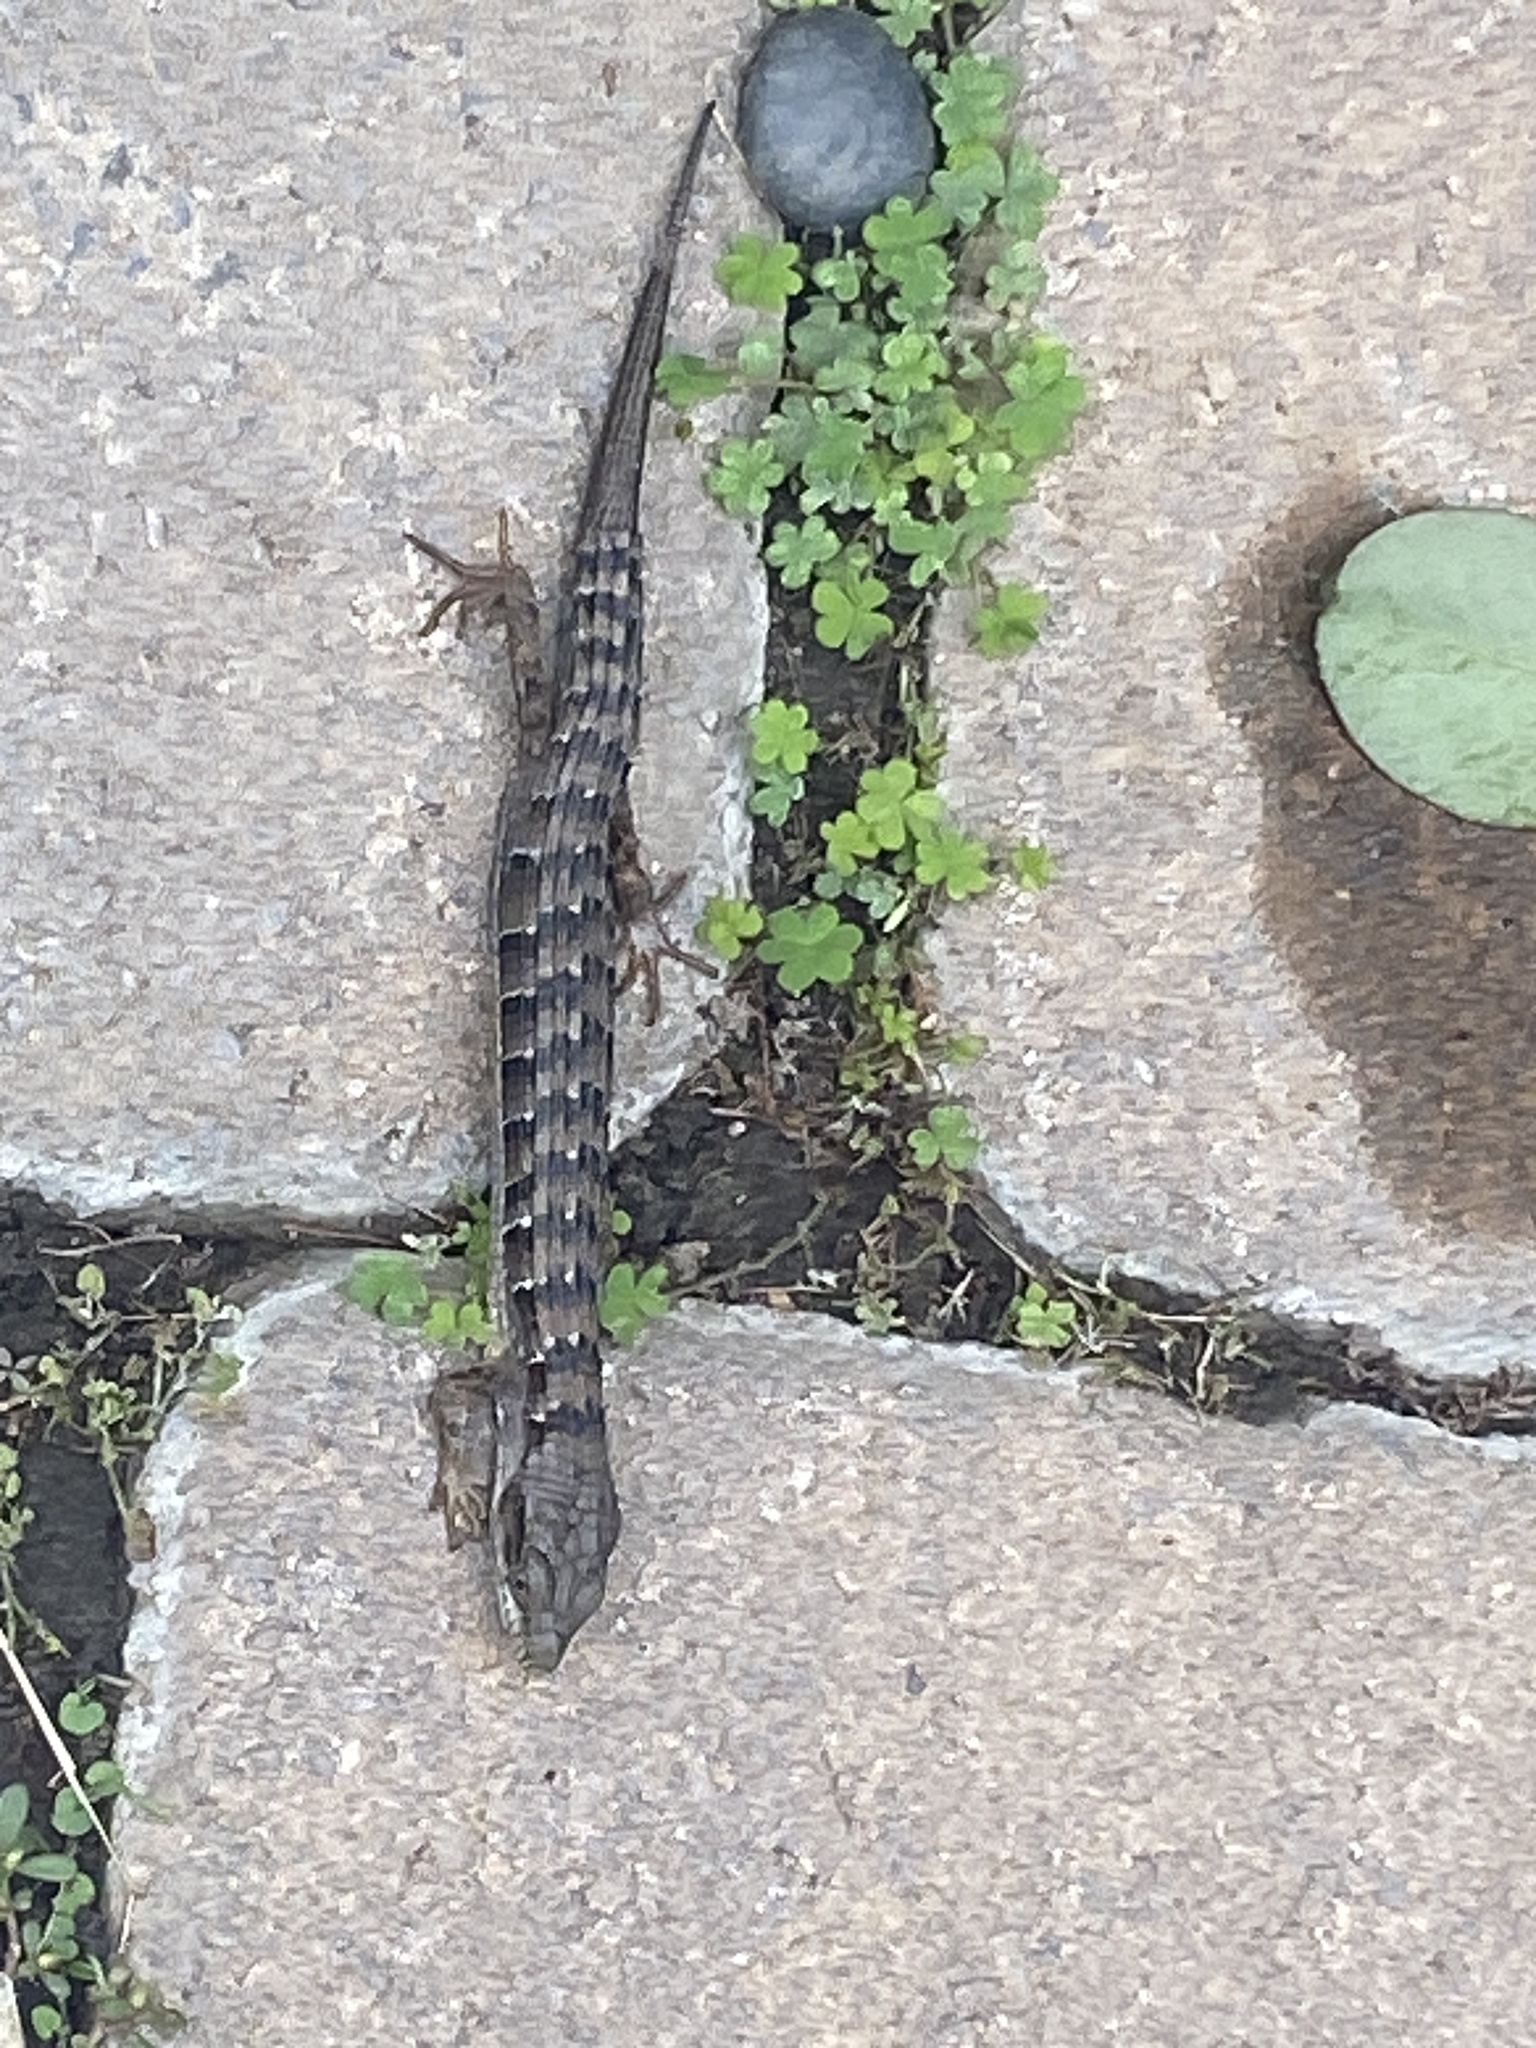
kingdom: Animalia
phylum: Chordata
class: Squamata
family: Anguidae
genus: Elgaria
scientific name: Elgaria multicarinata
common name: Southern alligator lizard
